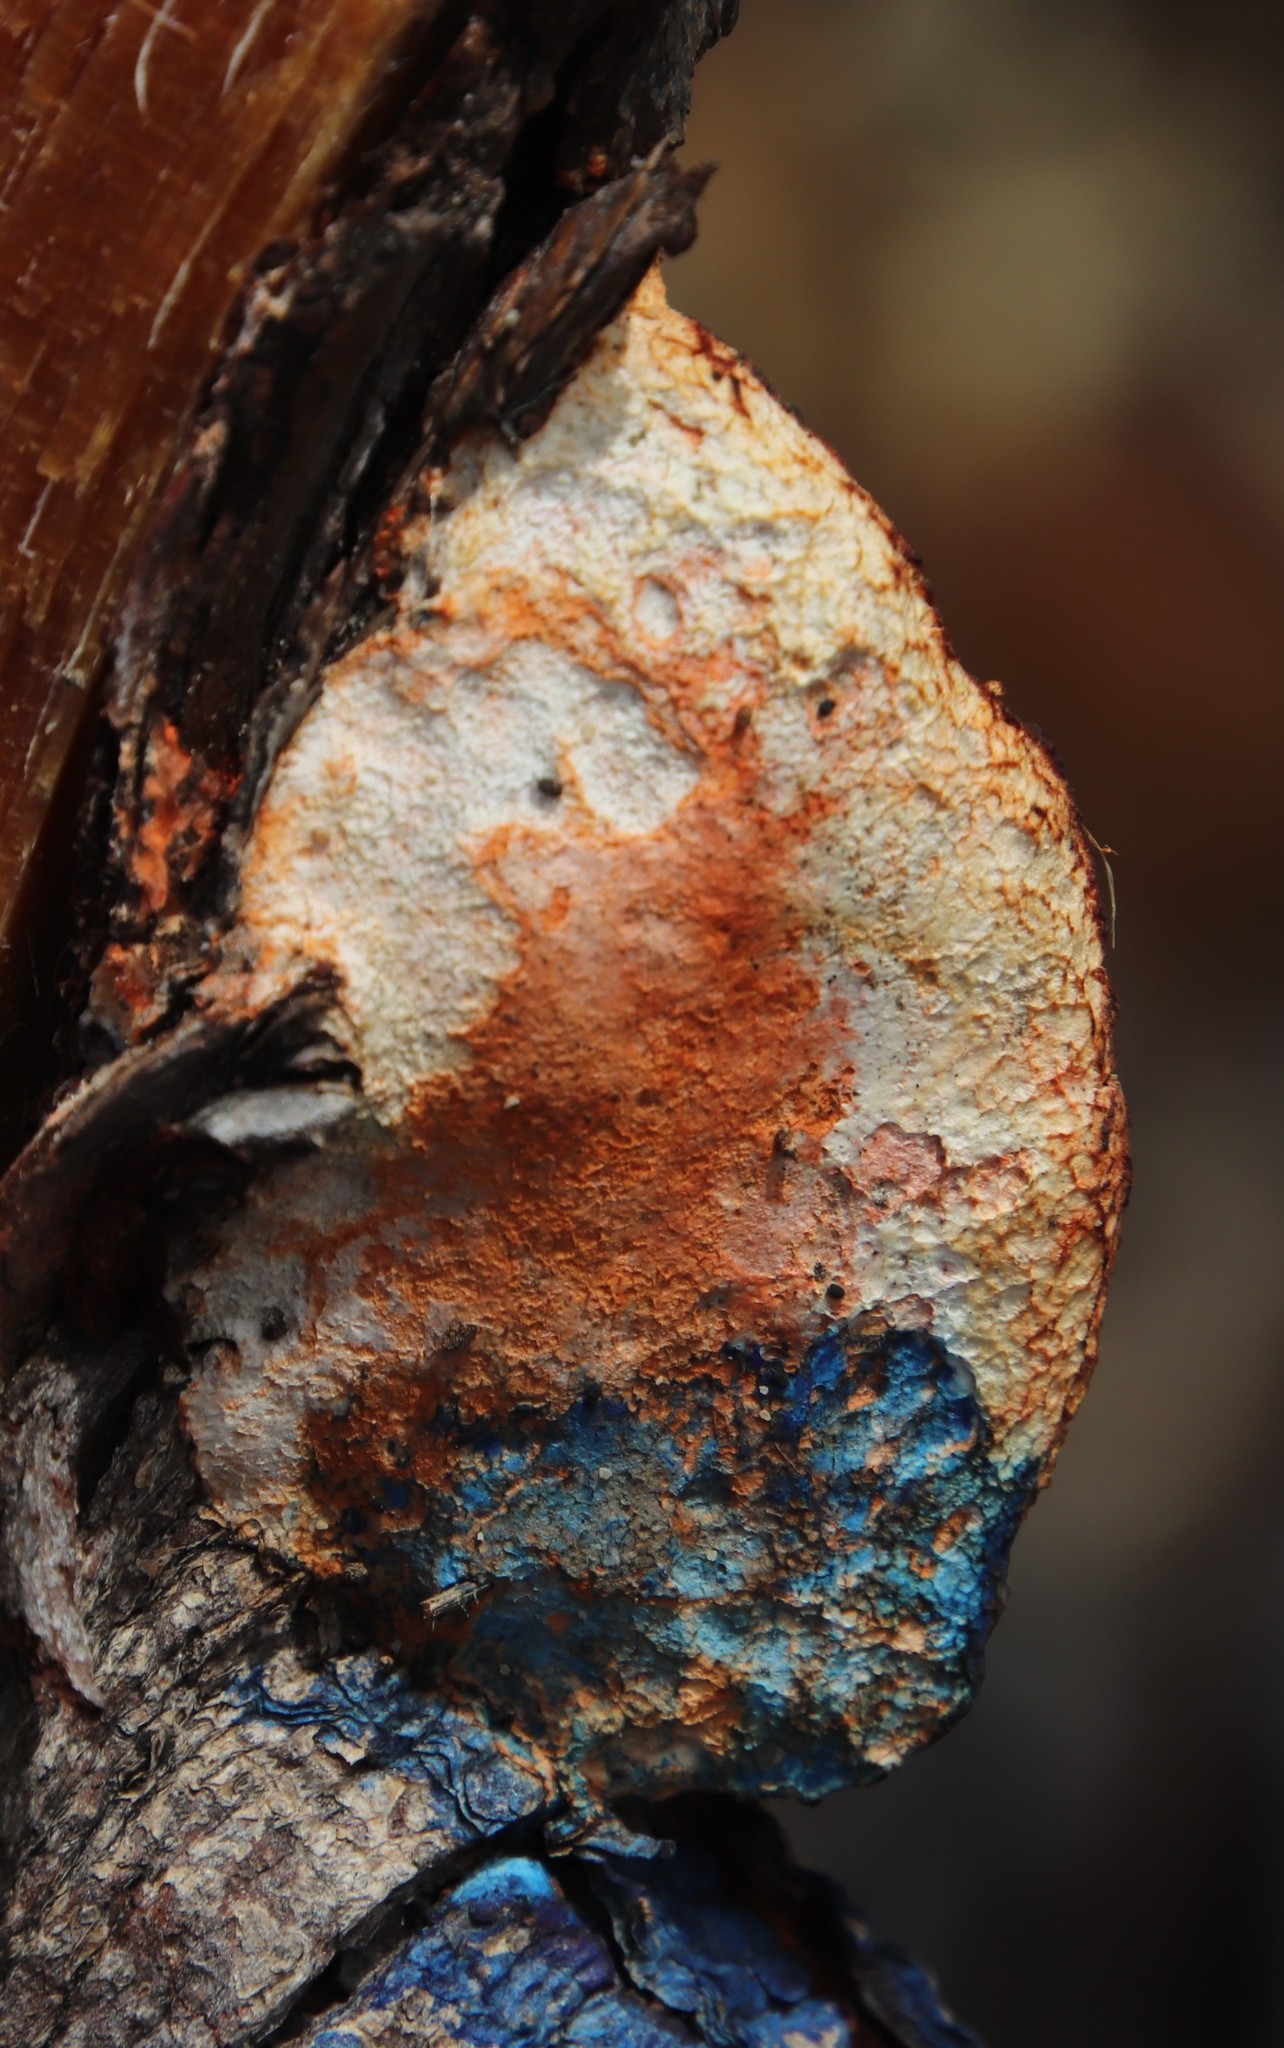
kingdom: Fungi
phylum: Basidiomycota
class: Agaricomycetes
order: Polyporales
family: Polyporaceae
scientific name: Polyporaceae
